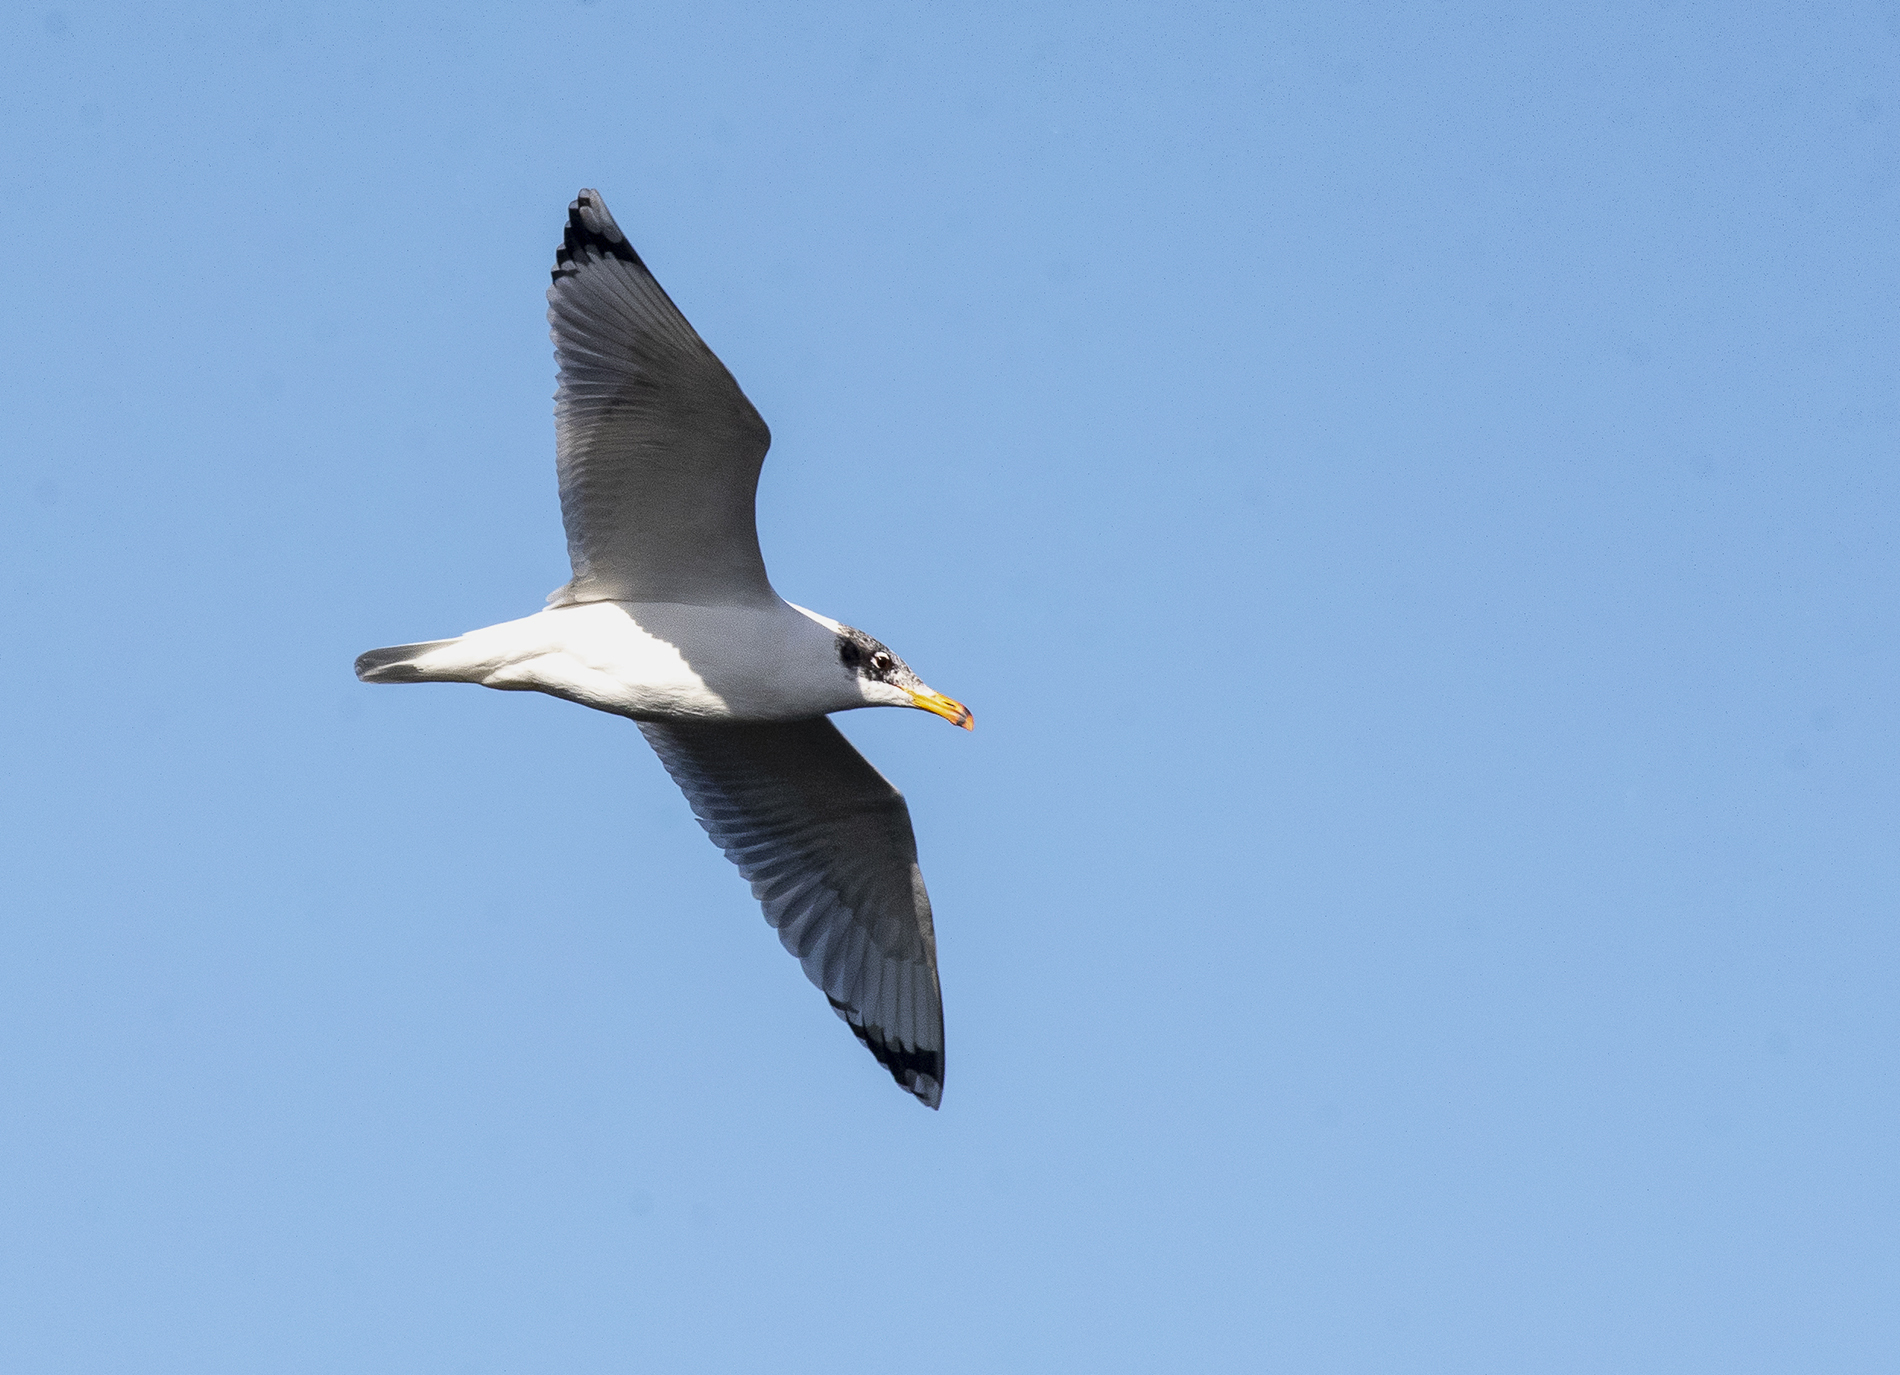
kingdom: Animalia
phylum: Chordata
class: Aves
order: Charadriiformes
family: Laridae
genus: Ichthyaetus
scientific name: Ichthyaetus ichthyaetus
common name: Pallas's gull
